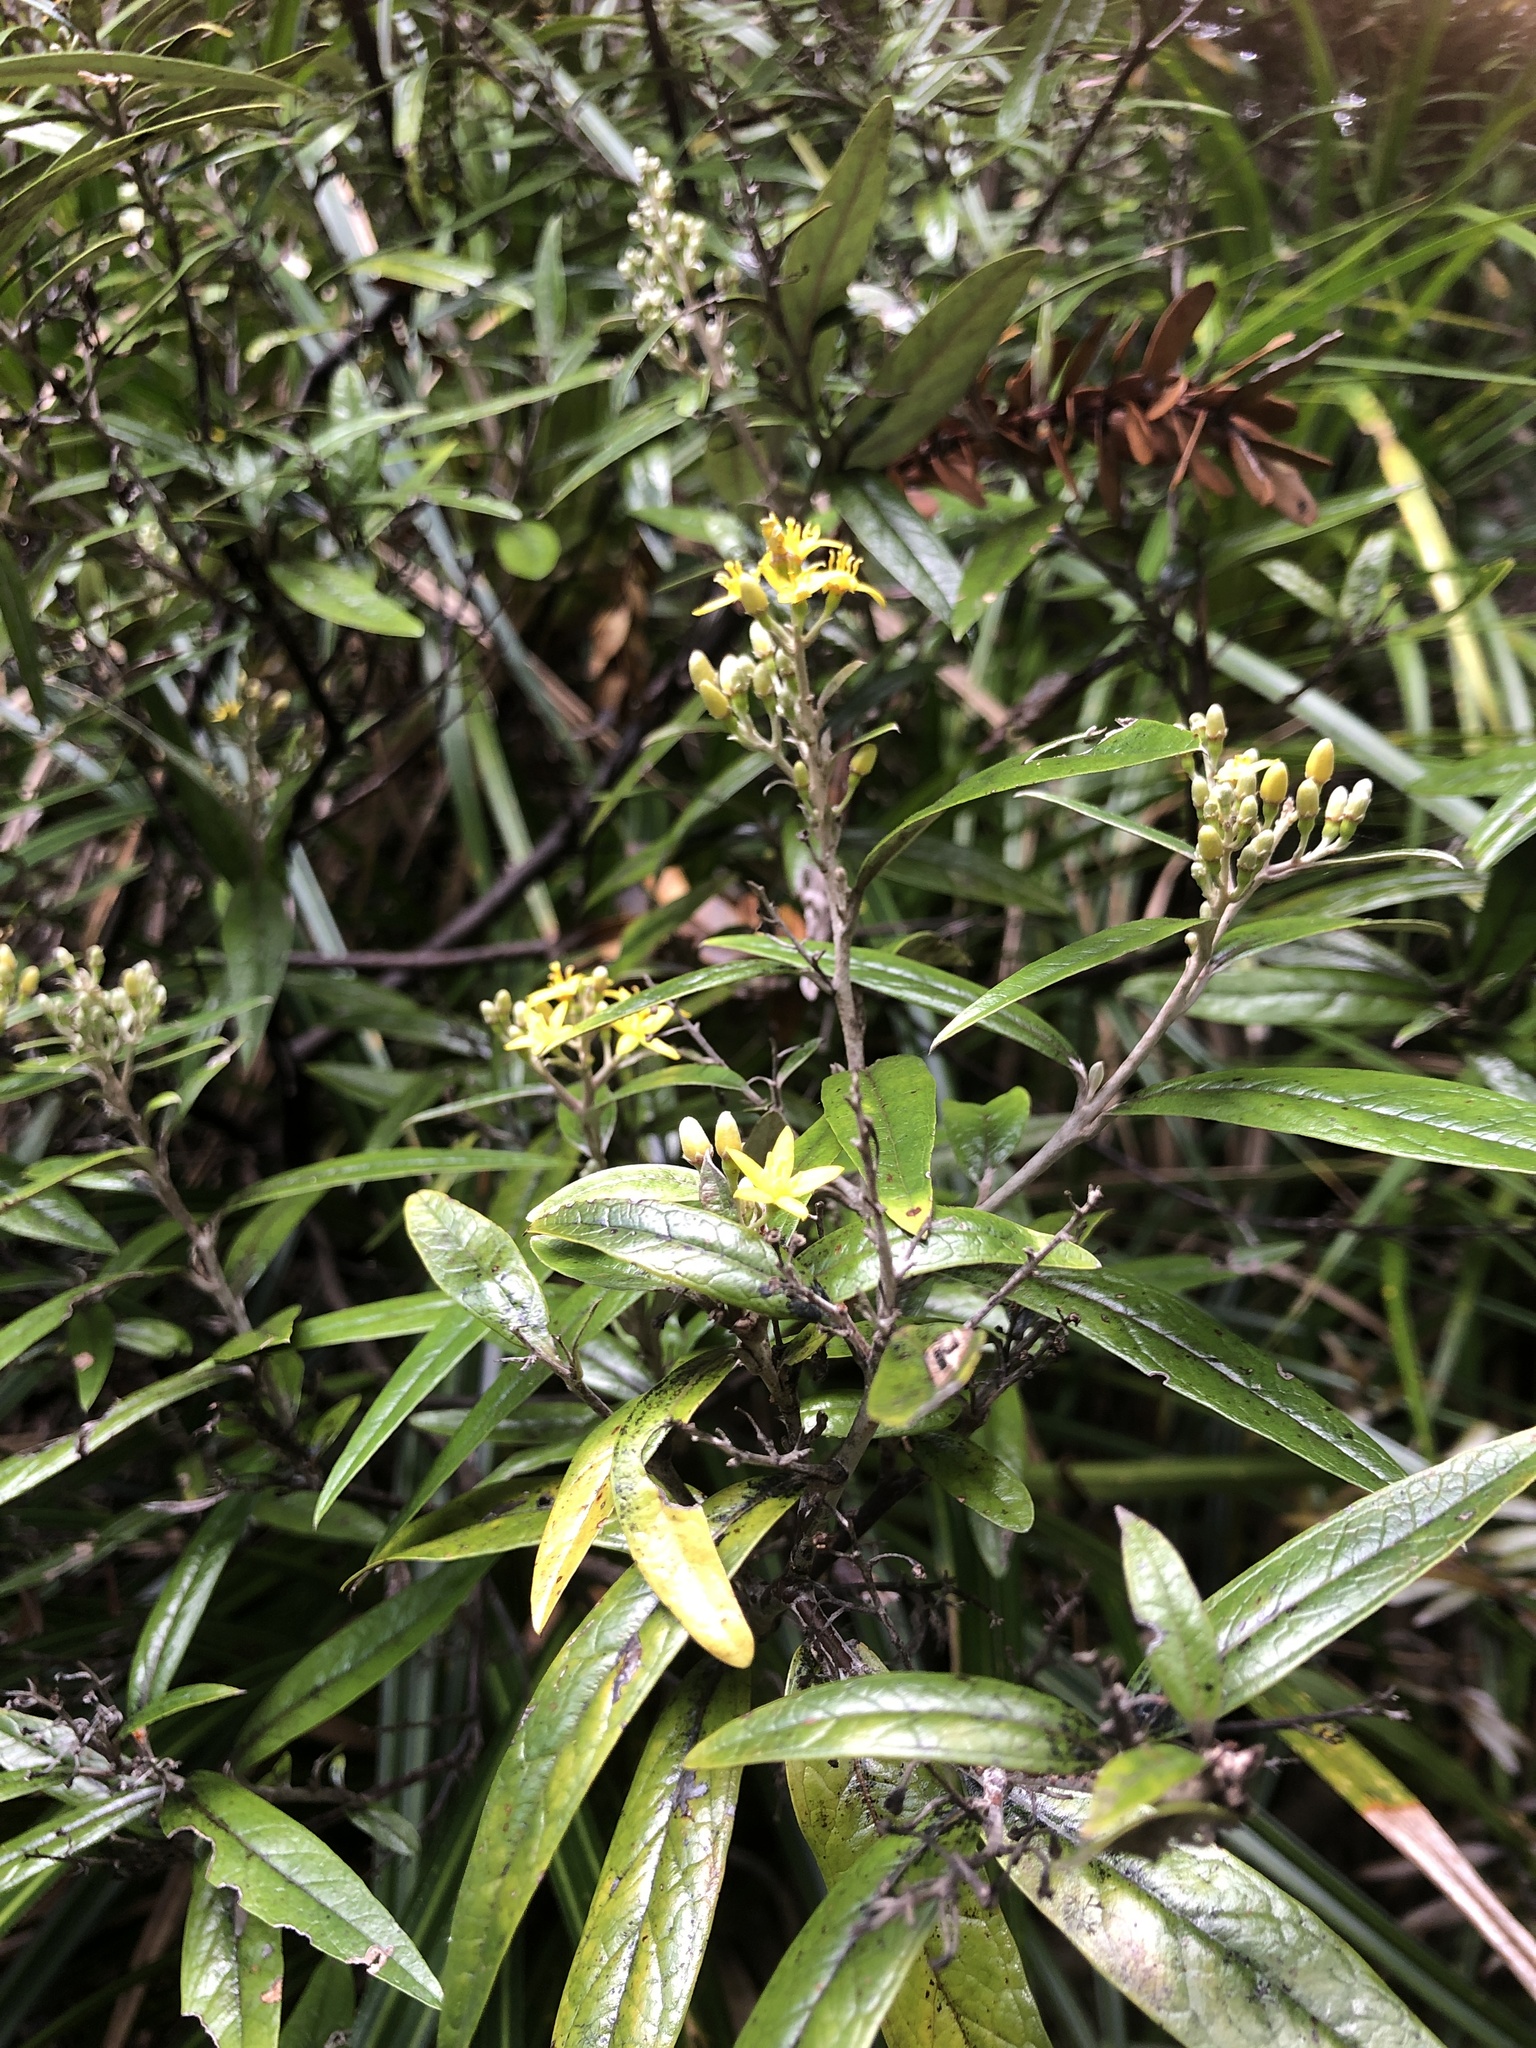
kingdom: Plantae
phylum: Tracheophyta
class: Magnoliopsida
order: Asterales
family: Argophyllaceae
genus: Corokia
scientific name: Corokia buddleioides
